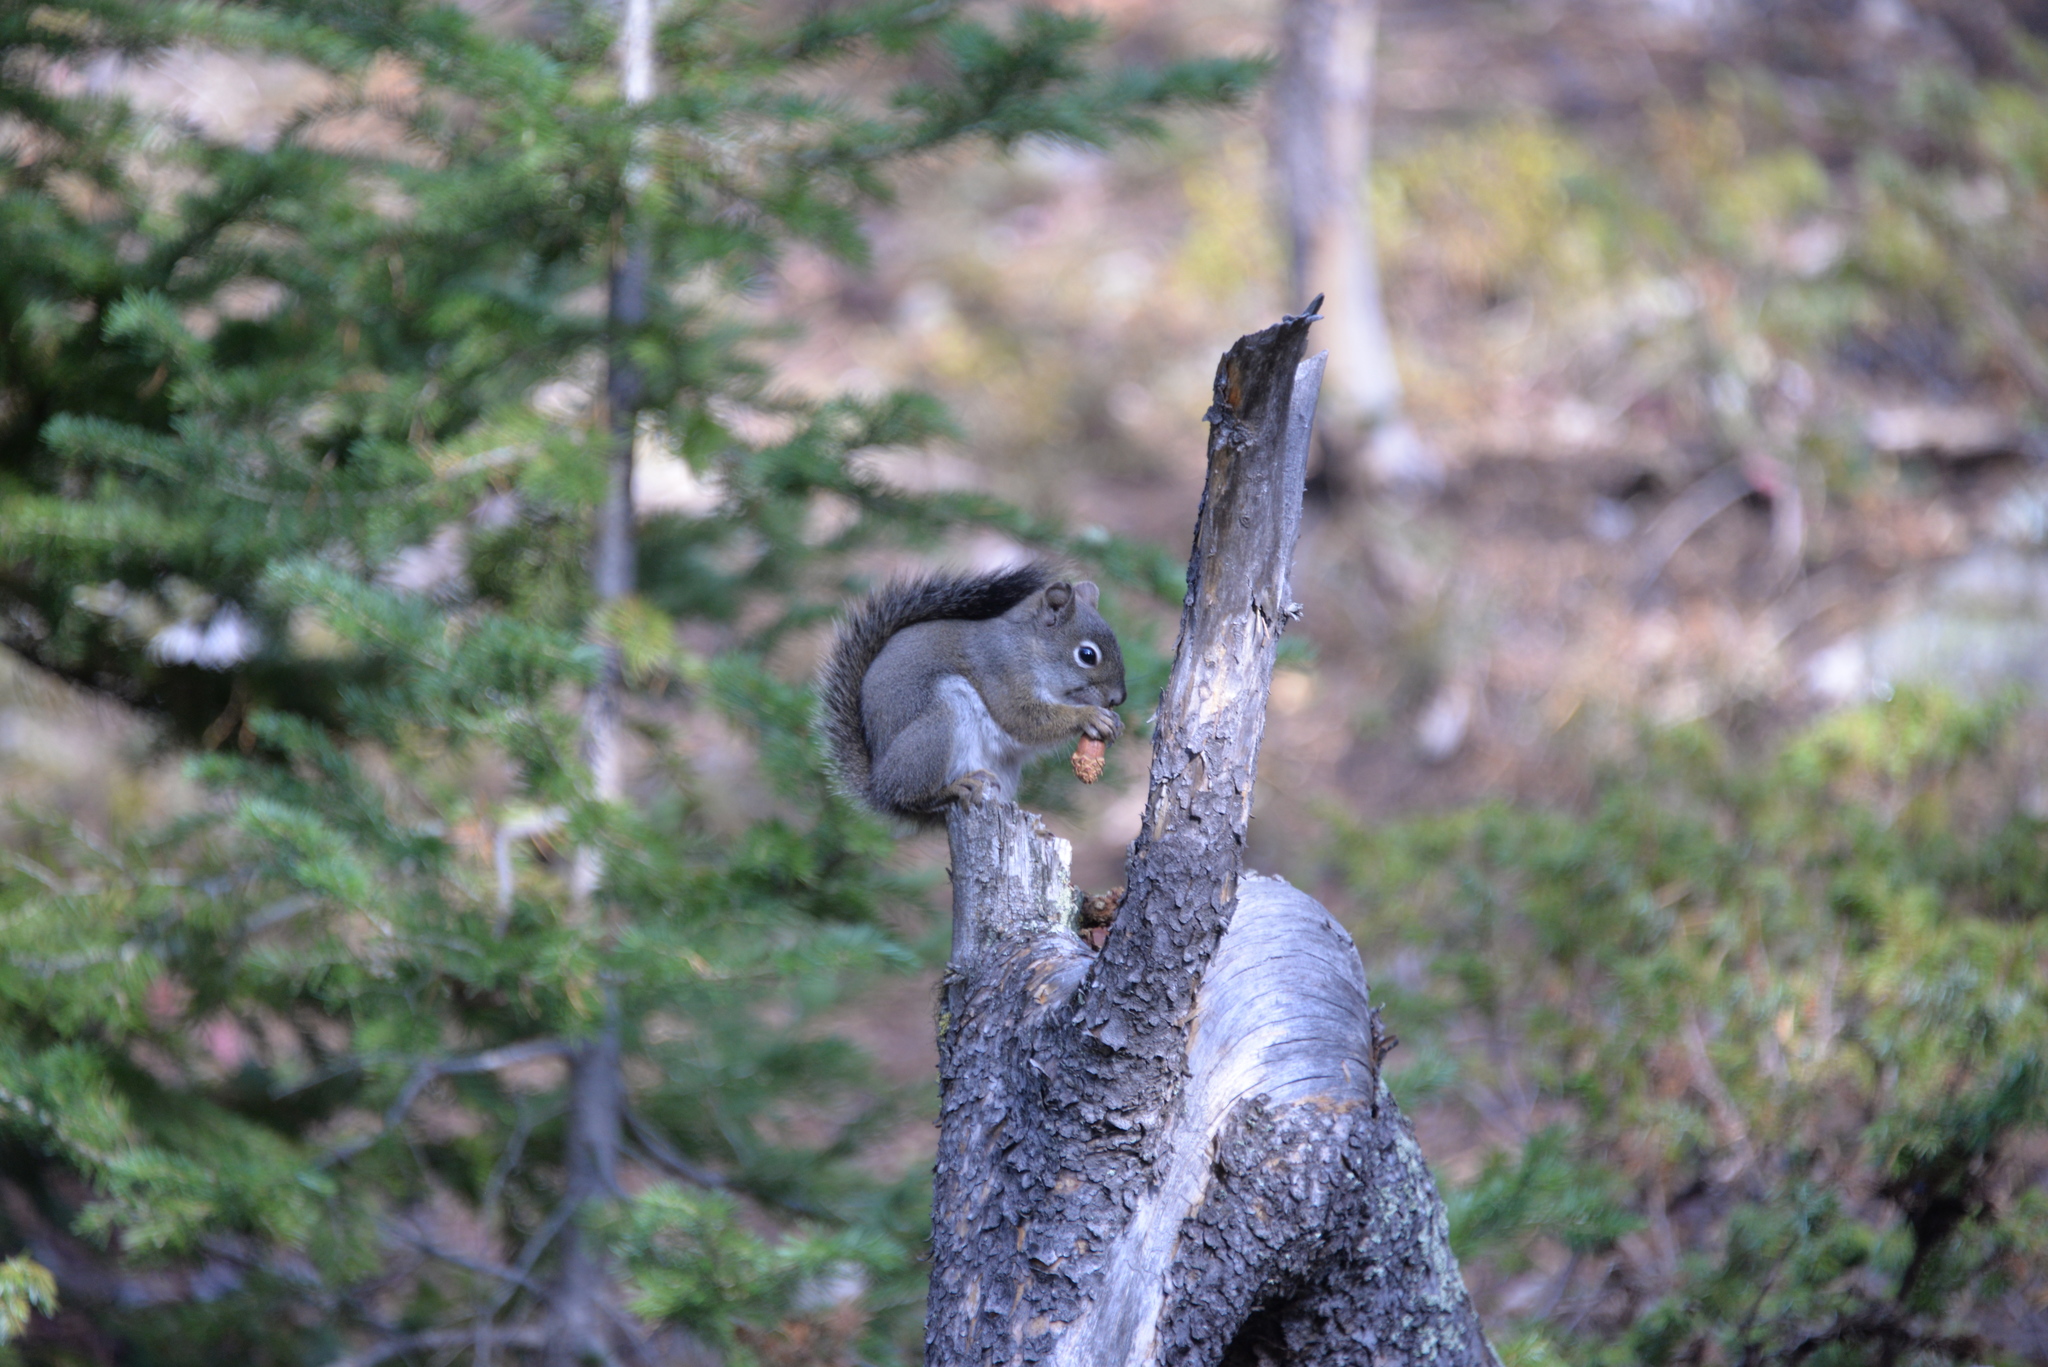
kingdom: Animalia
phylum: Chordata
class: Mammalia
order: Rodentia
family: Sciuridae
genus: Tamiasciurus
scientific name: Tamiasciurus hudsonicus
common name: Red squirrel
